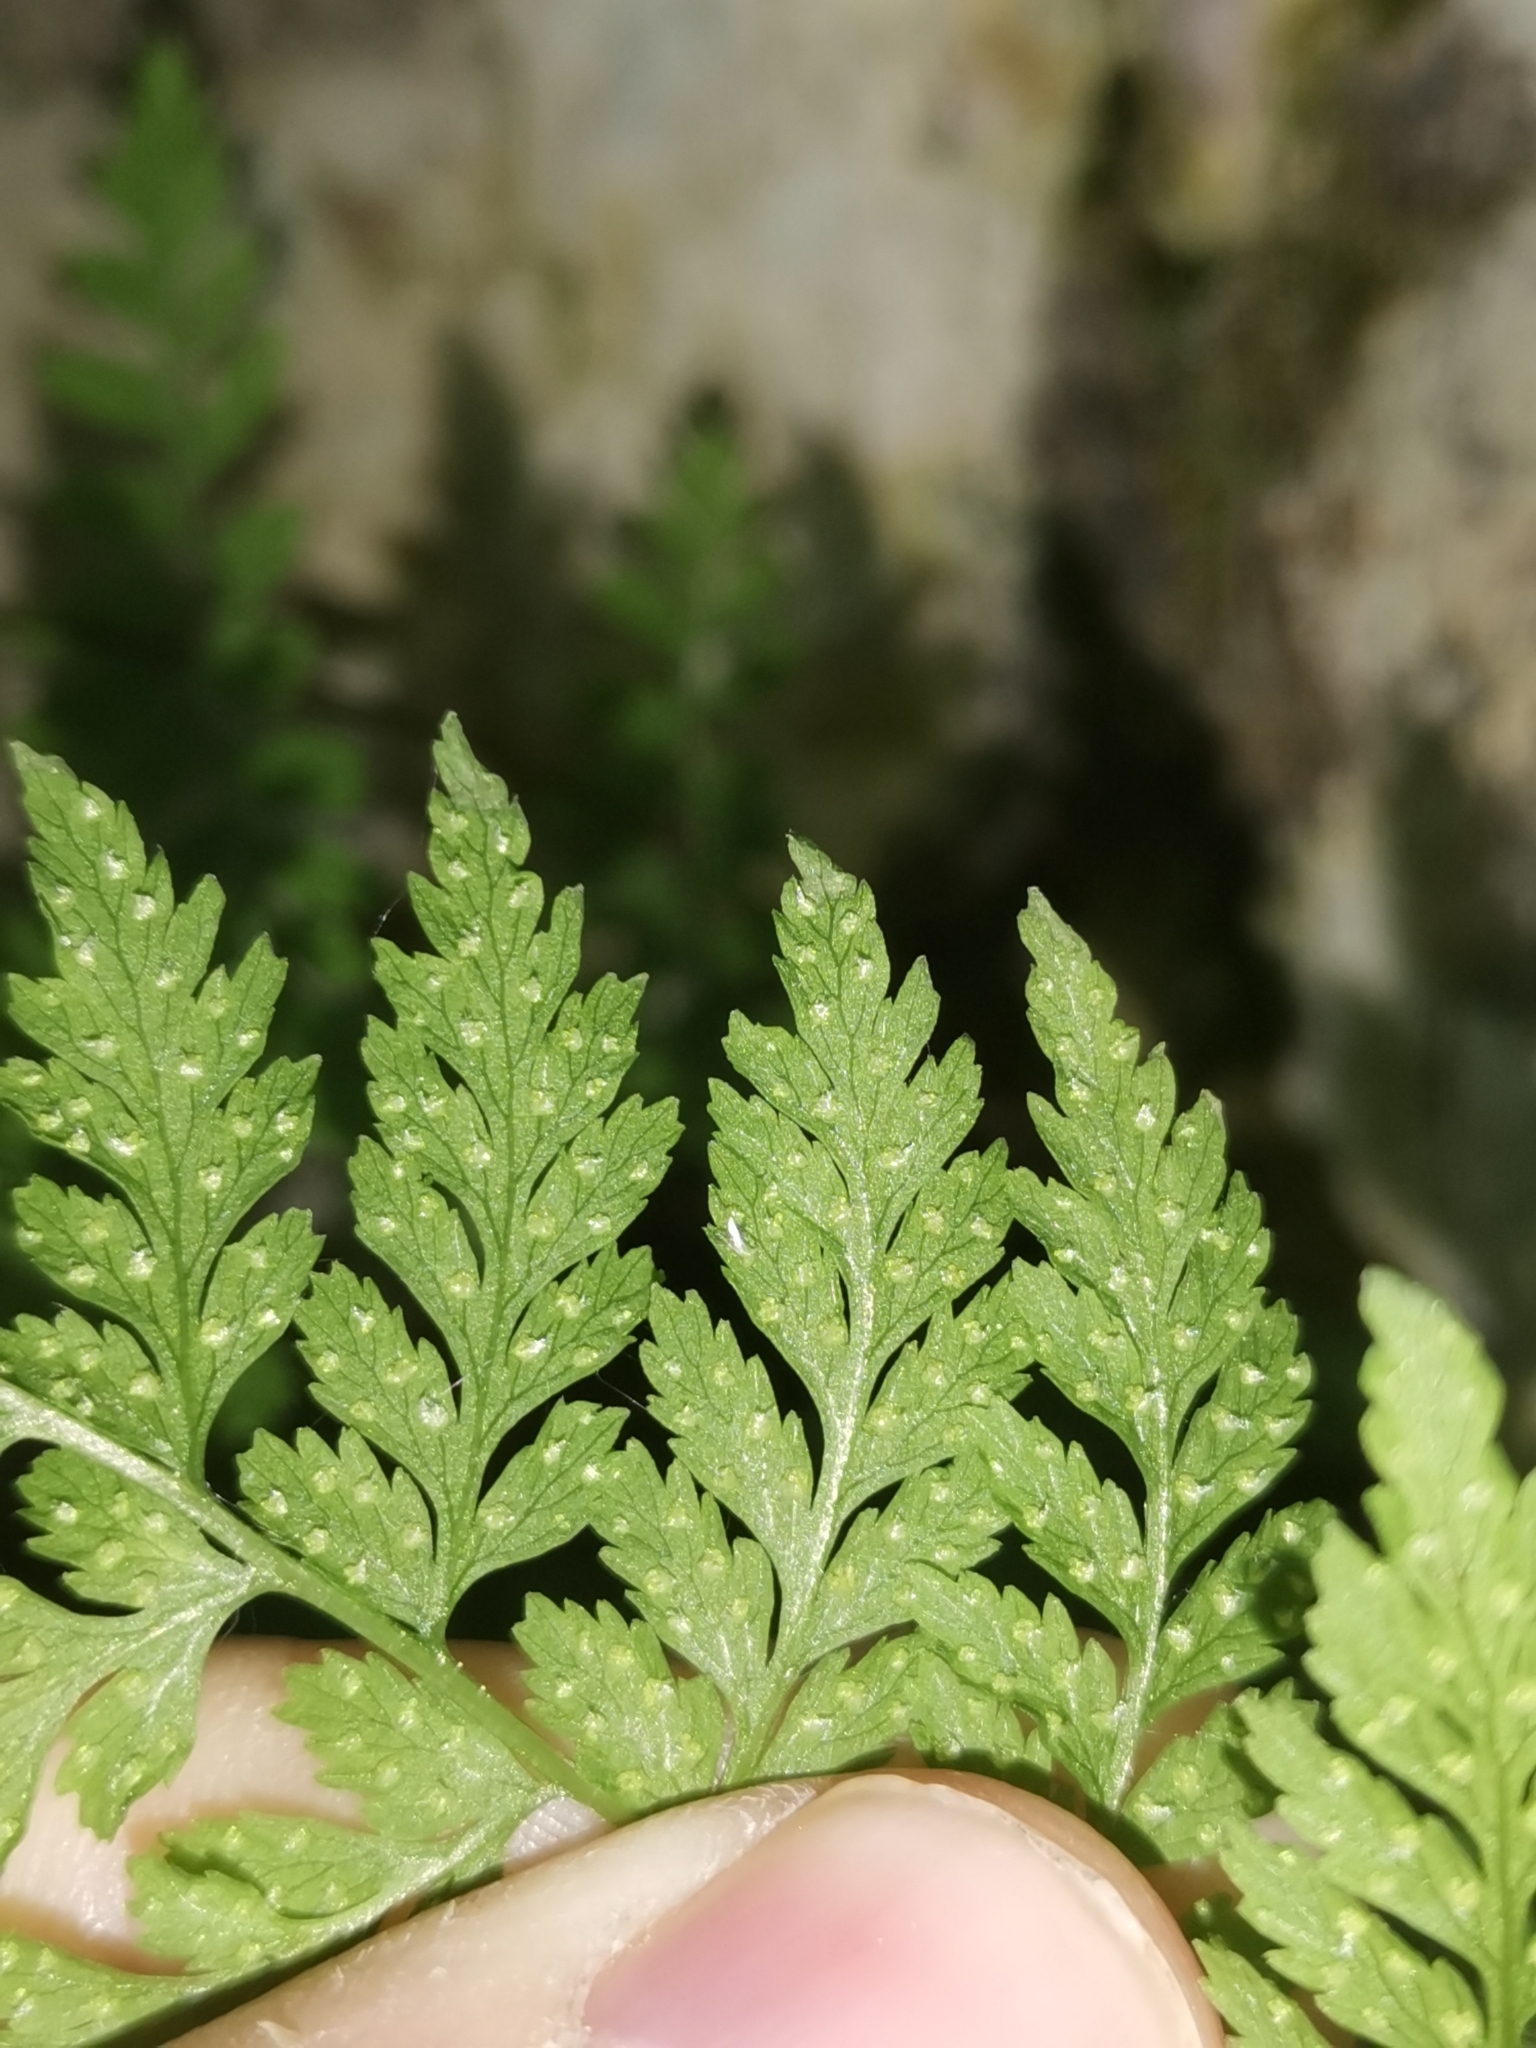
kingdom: Plantae
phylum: Tracheophyta
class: Polypodiopsida
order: Polypodiales
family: Cystopteridaceae
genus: Cystopteris
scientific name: Cystopteris fragilis
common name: Brittle bladder fern
